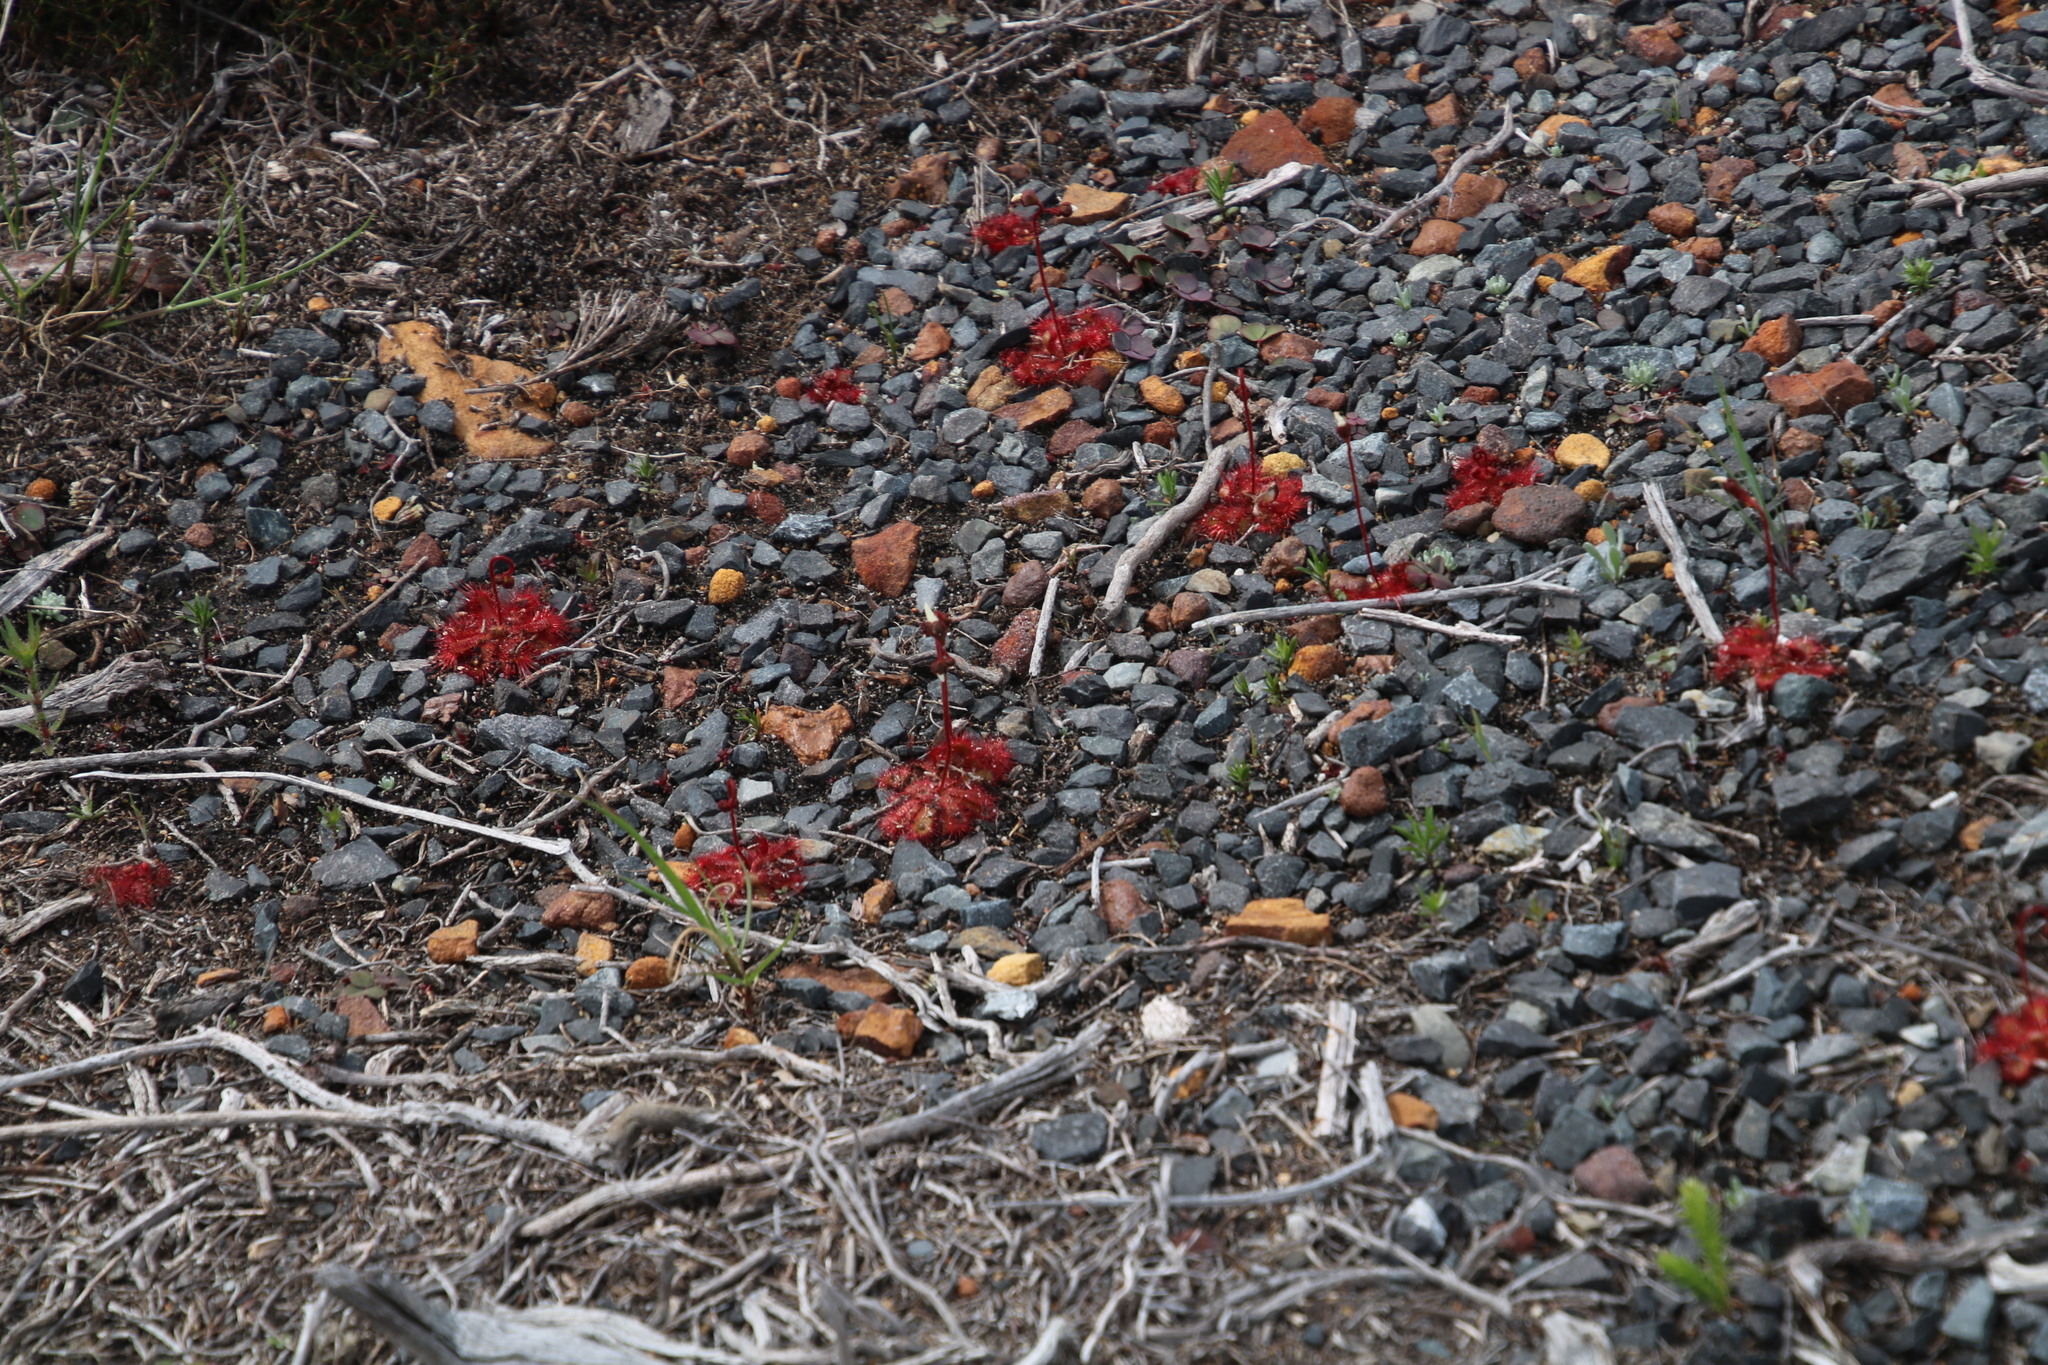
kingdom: Plantae
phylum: Tracheophyta
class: Magnoliopsida
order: Caryophyllales
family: Droseraceae
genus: Drosera
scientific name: Drosera trinervia
